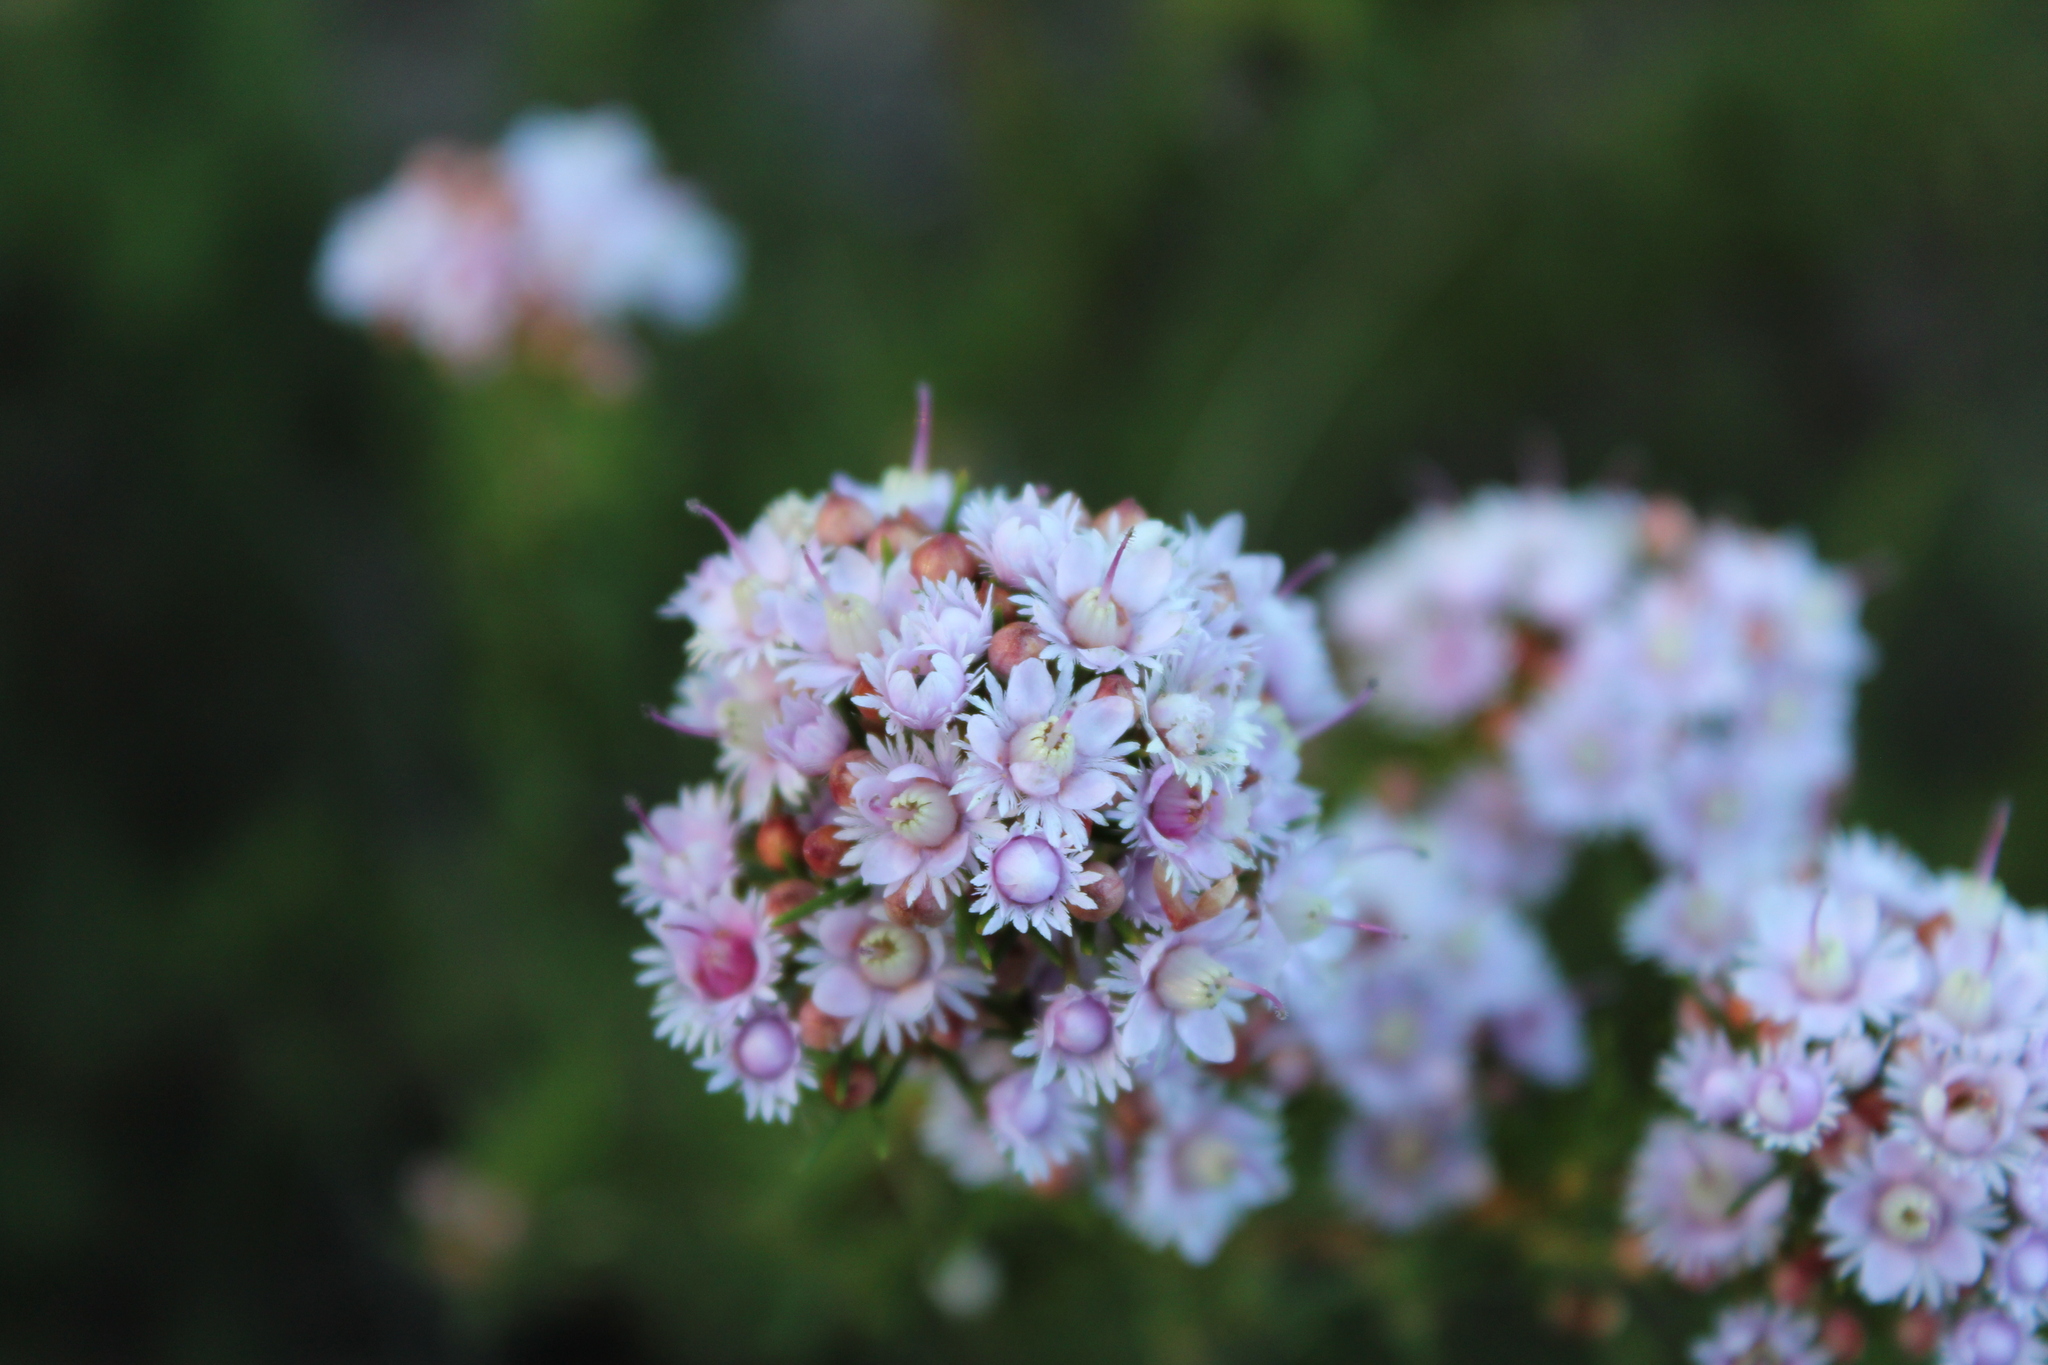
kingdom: Plantae
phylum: Tracheophyta
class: Magnoliopsida
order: Myrtales
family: Myrtaceae
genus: Verticordia
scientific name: Verticordia plumosa
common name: Plume feather-flower
